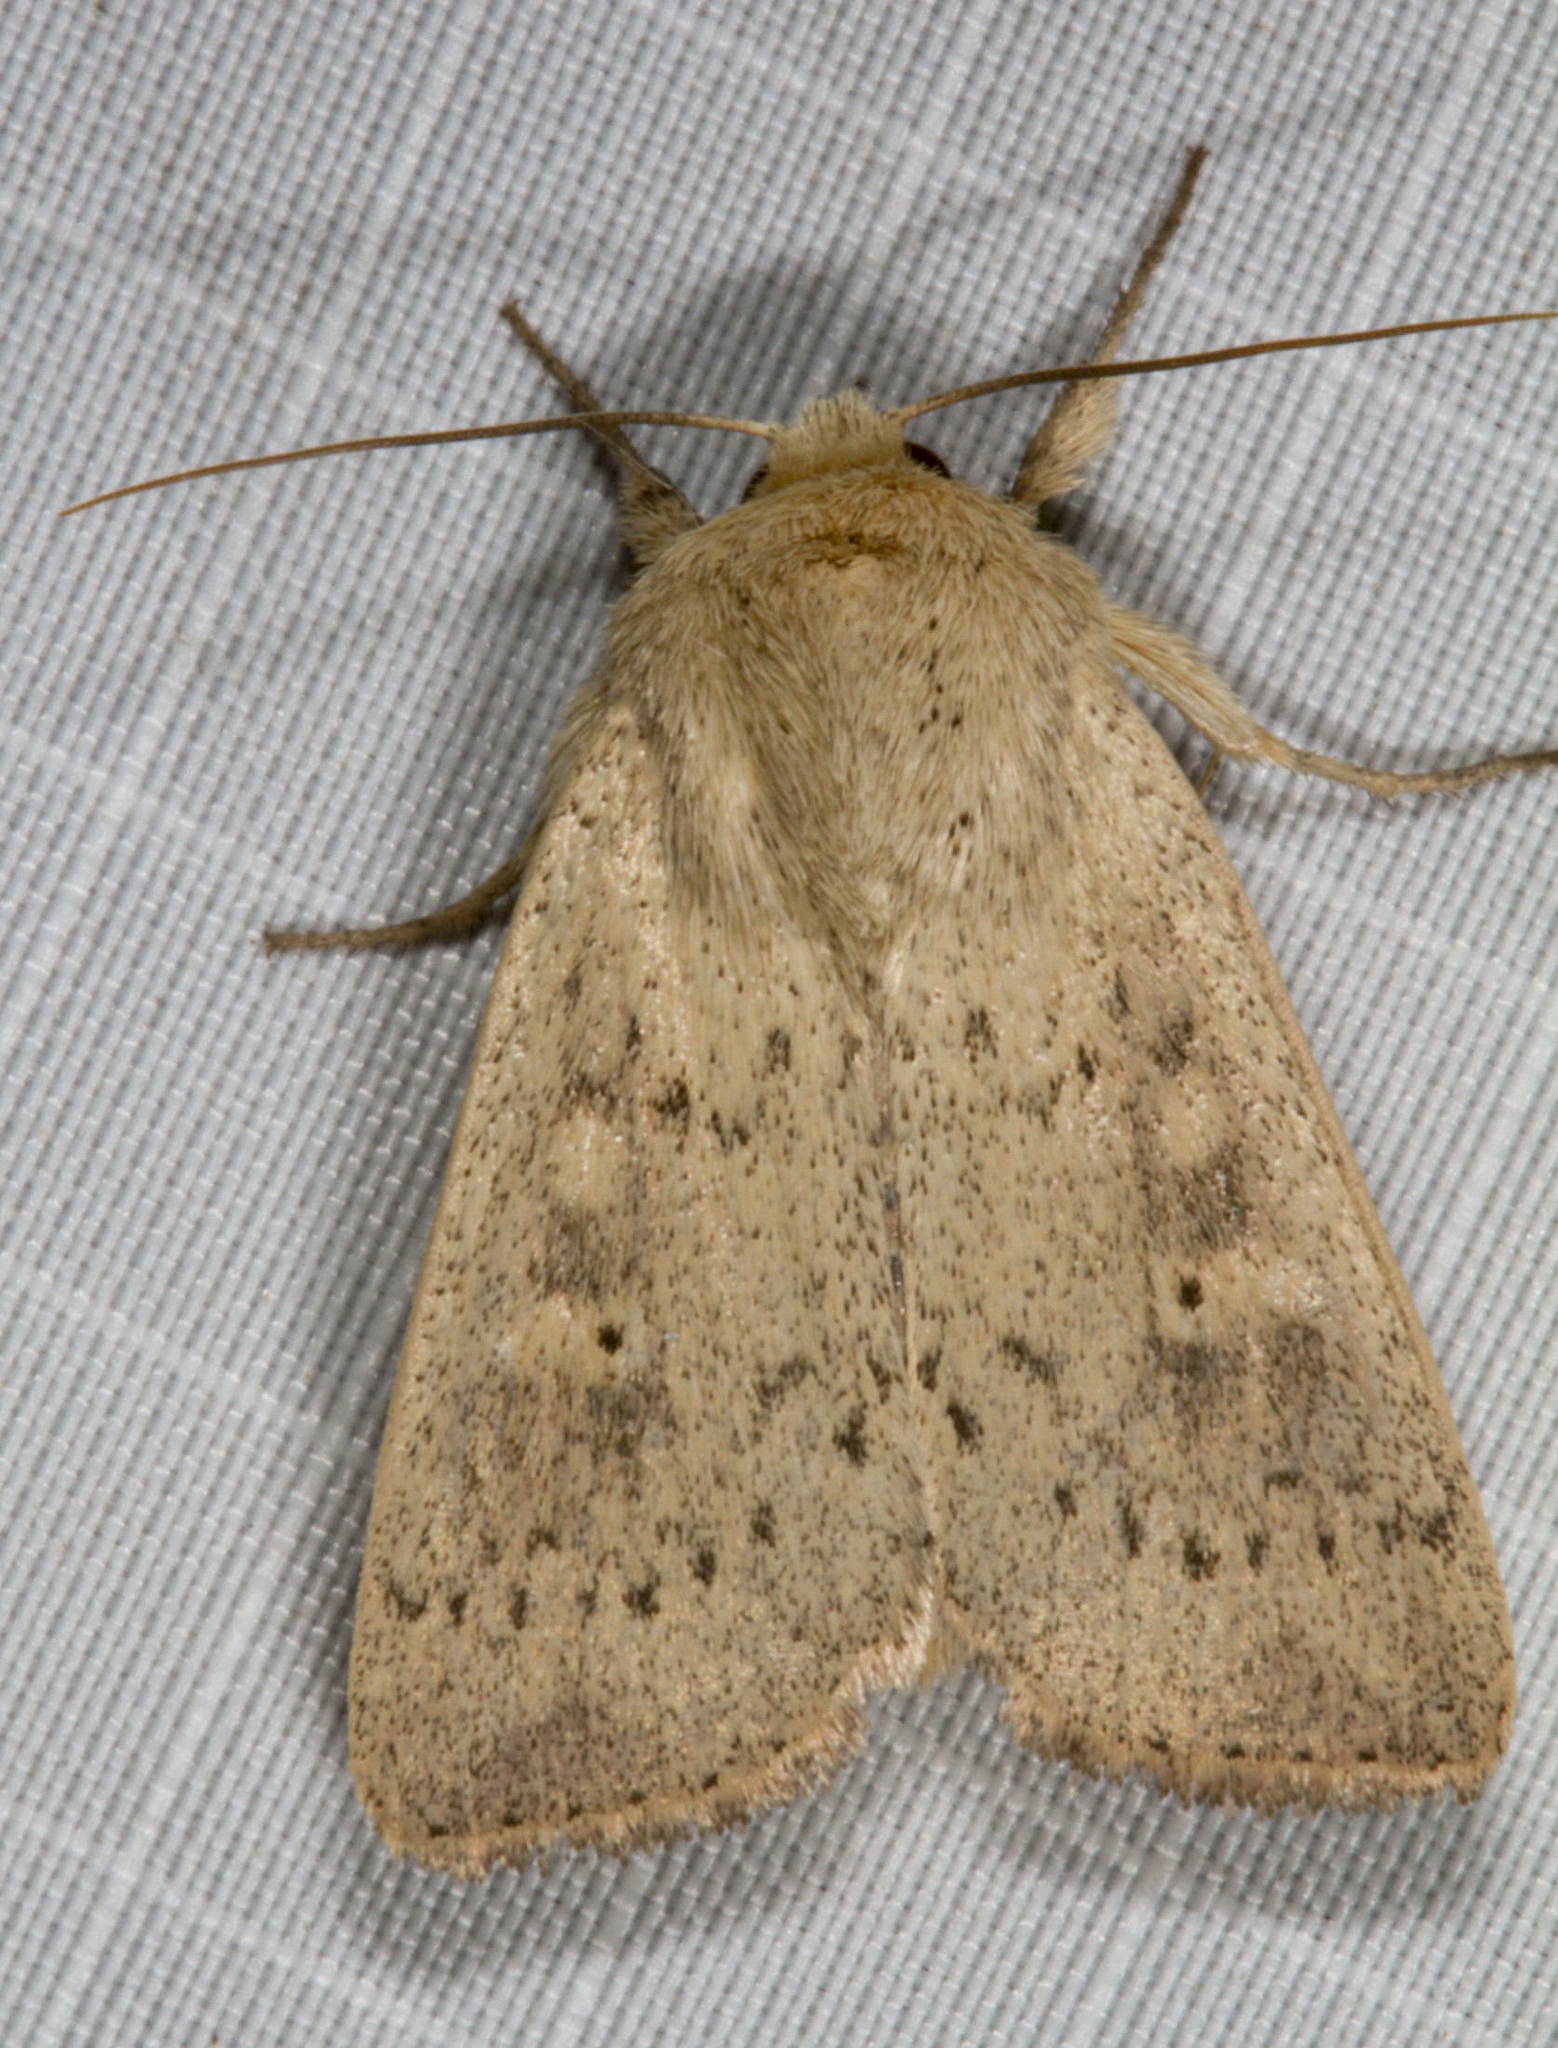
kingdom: Animalia
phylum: Arthropoda
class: Insecta
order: Lepidoptera
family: Noctuidae
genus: Leucania
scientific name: Leucania inermis
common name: Unarmed wainscot
